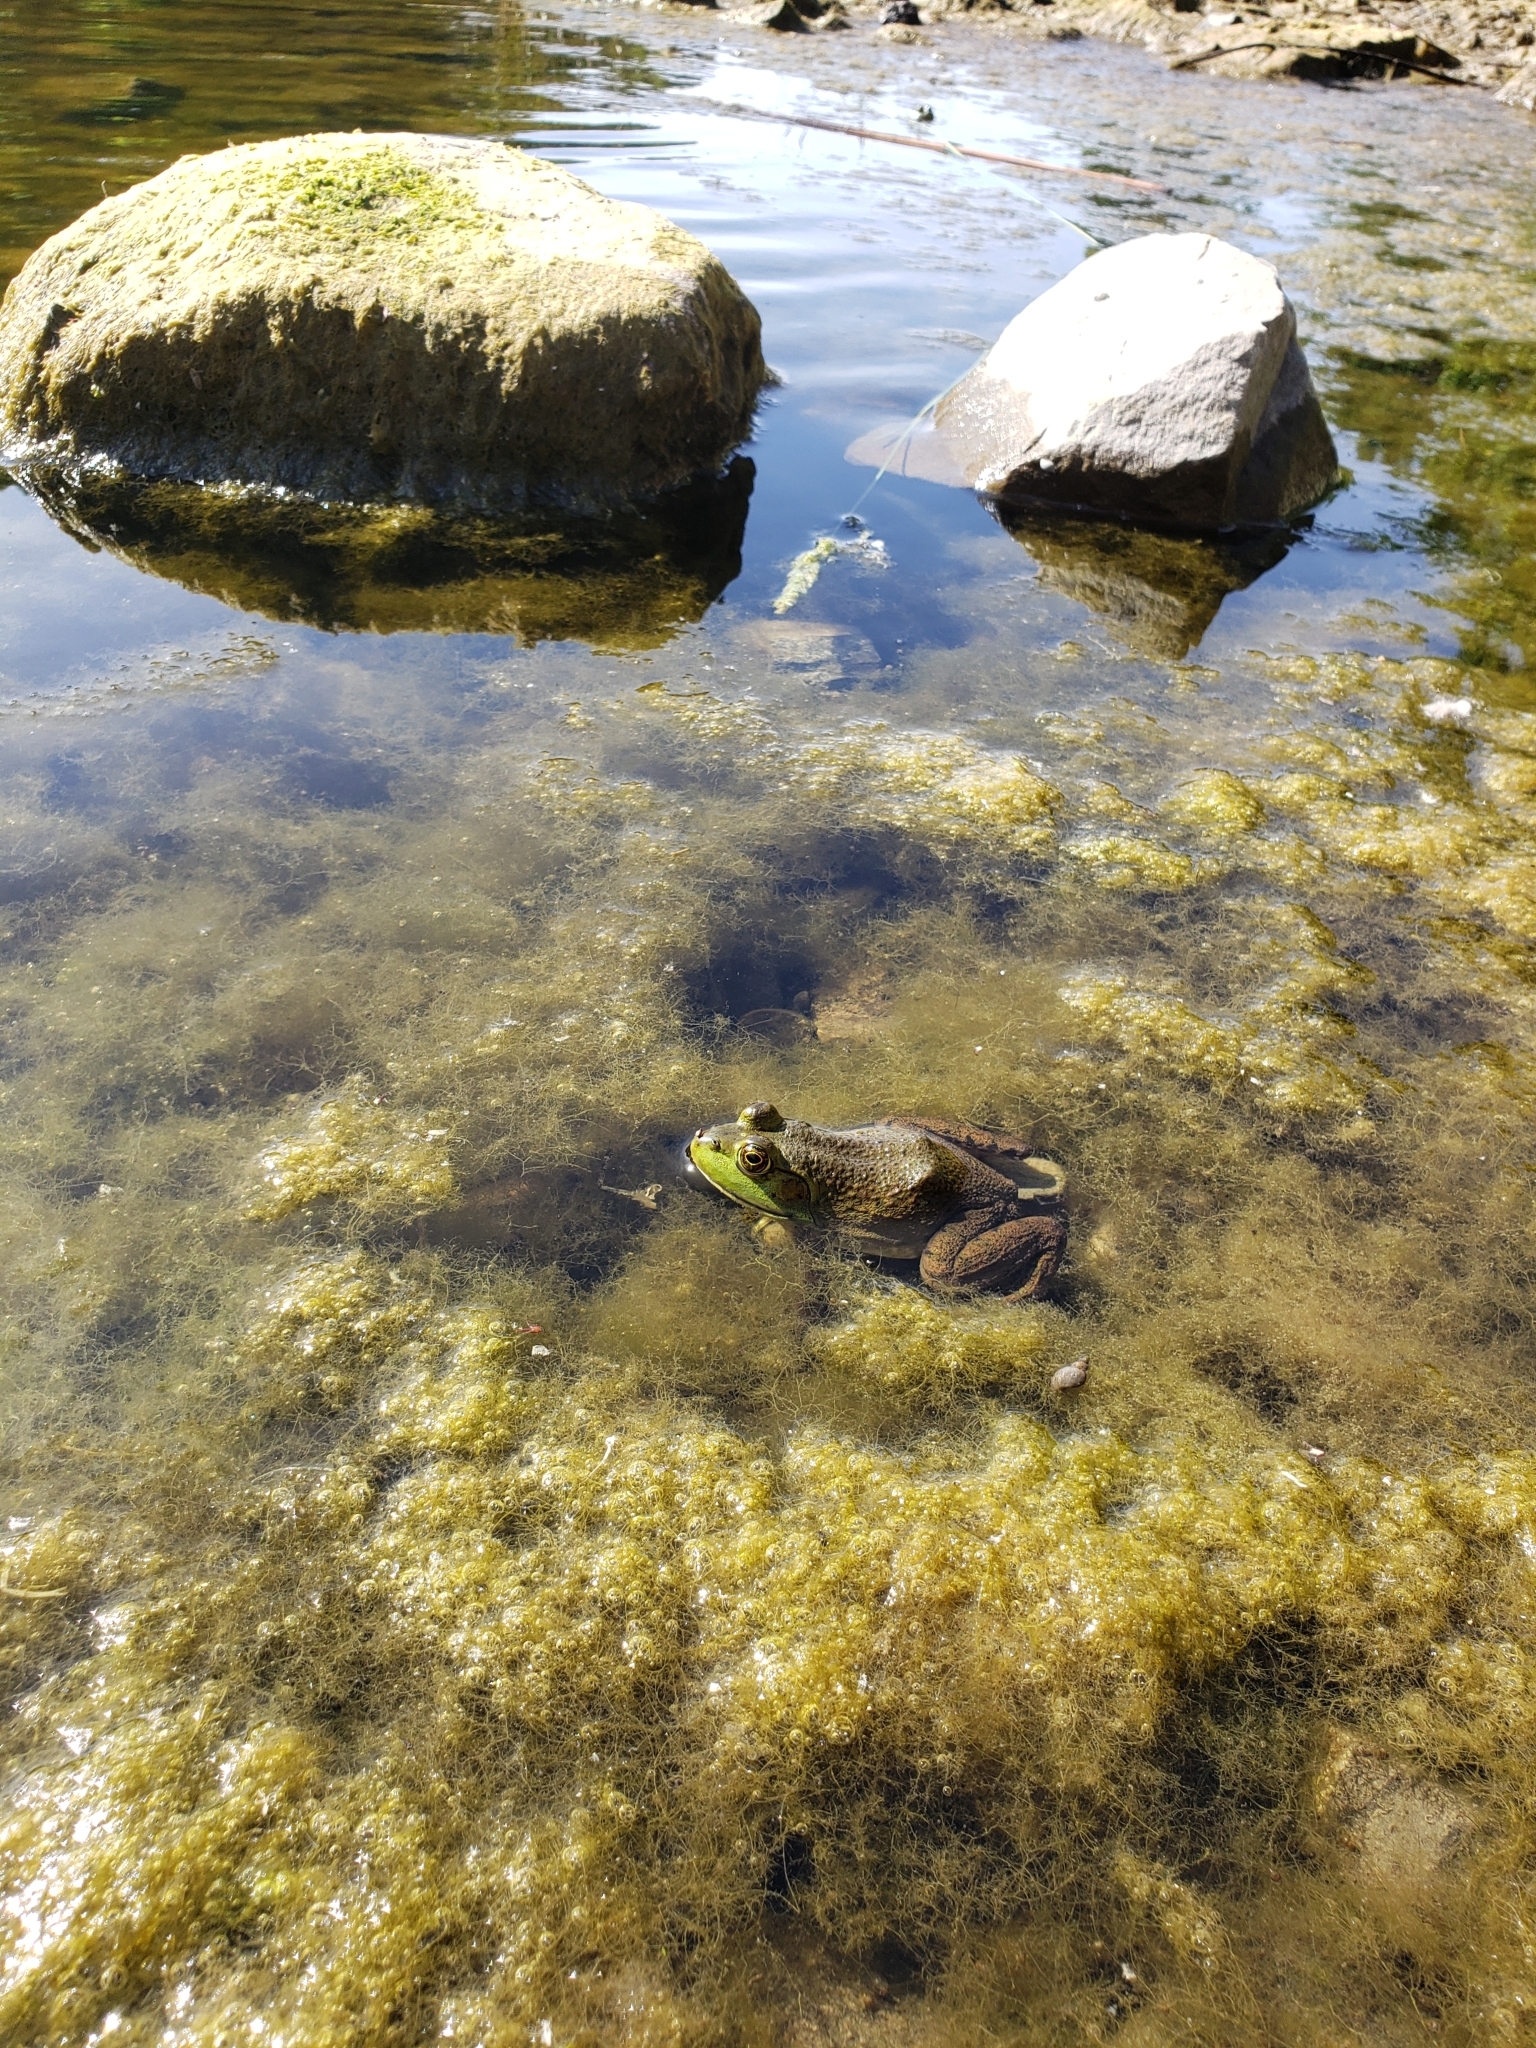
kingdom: Animalia
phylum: Chordata
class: Amphibia
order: Anura
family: Ranidae
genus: Lithobates
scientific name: Lithobates catesbeianus
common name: American bullfrog
